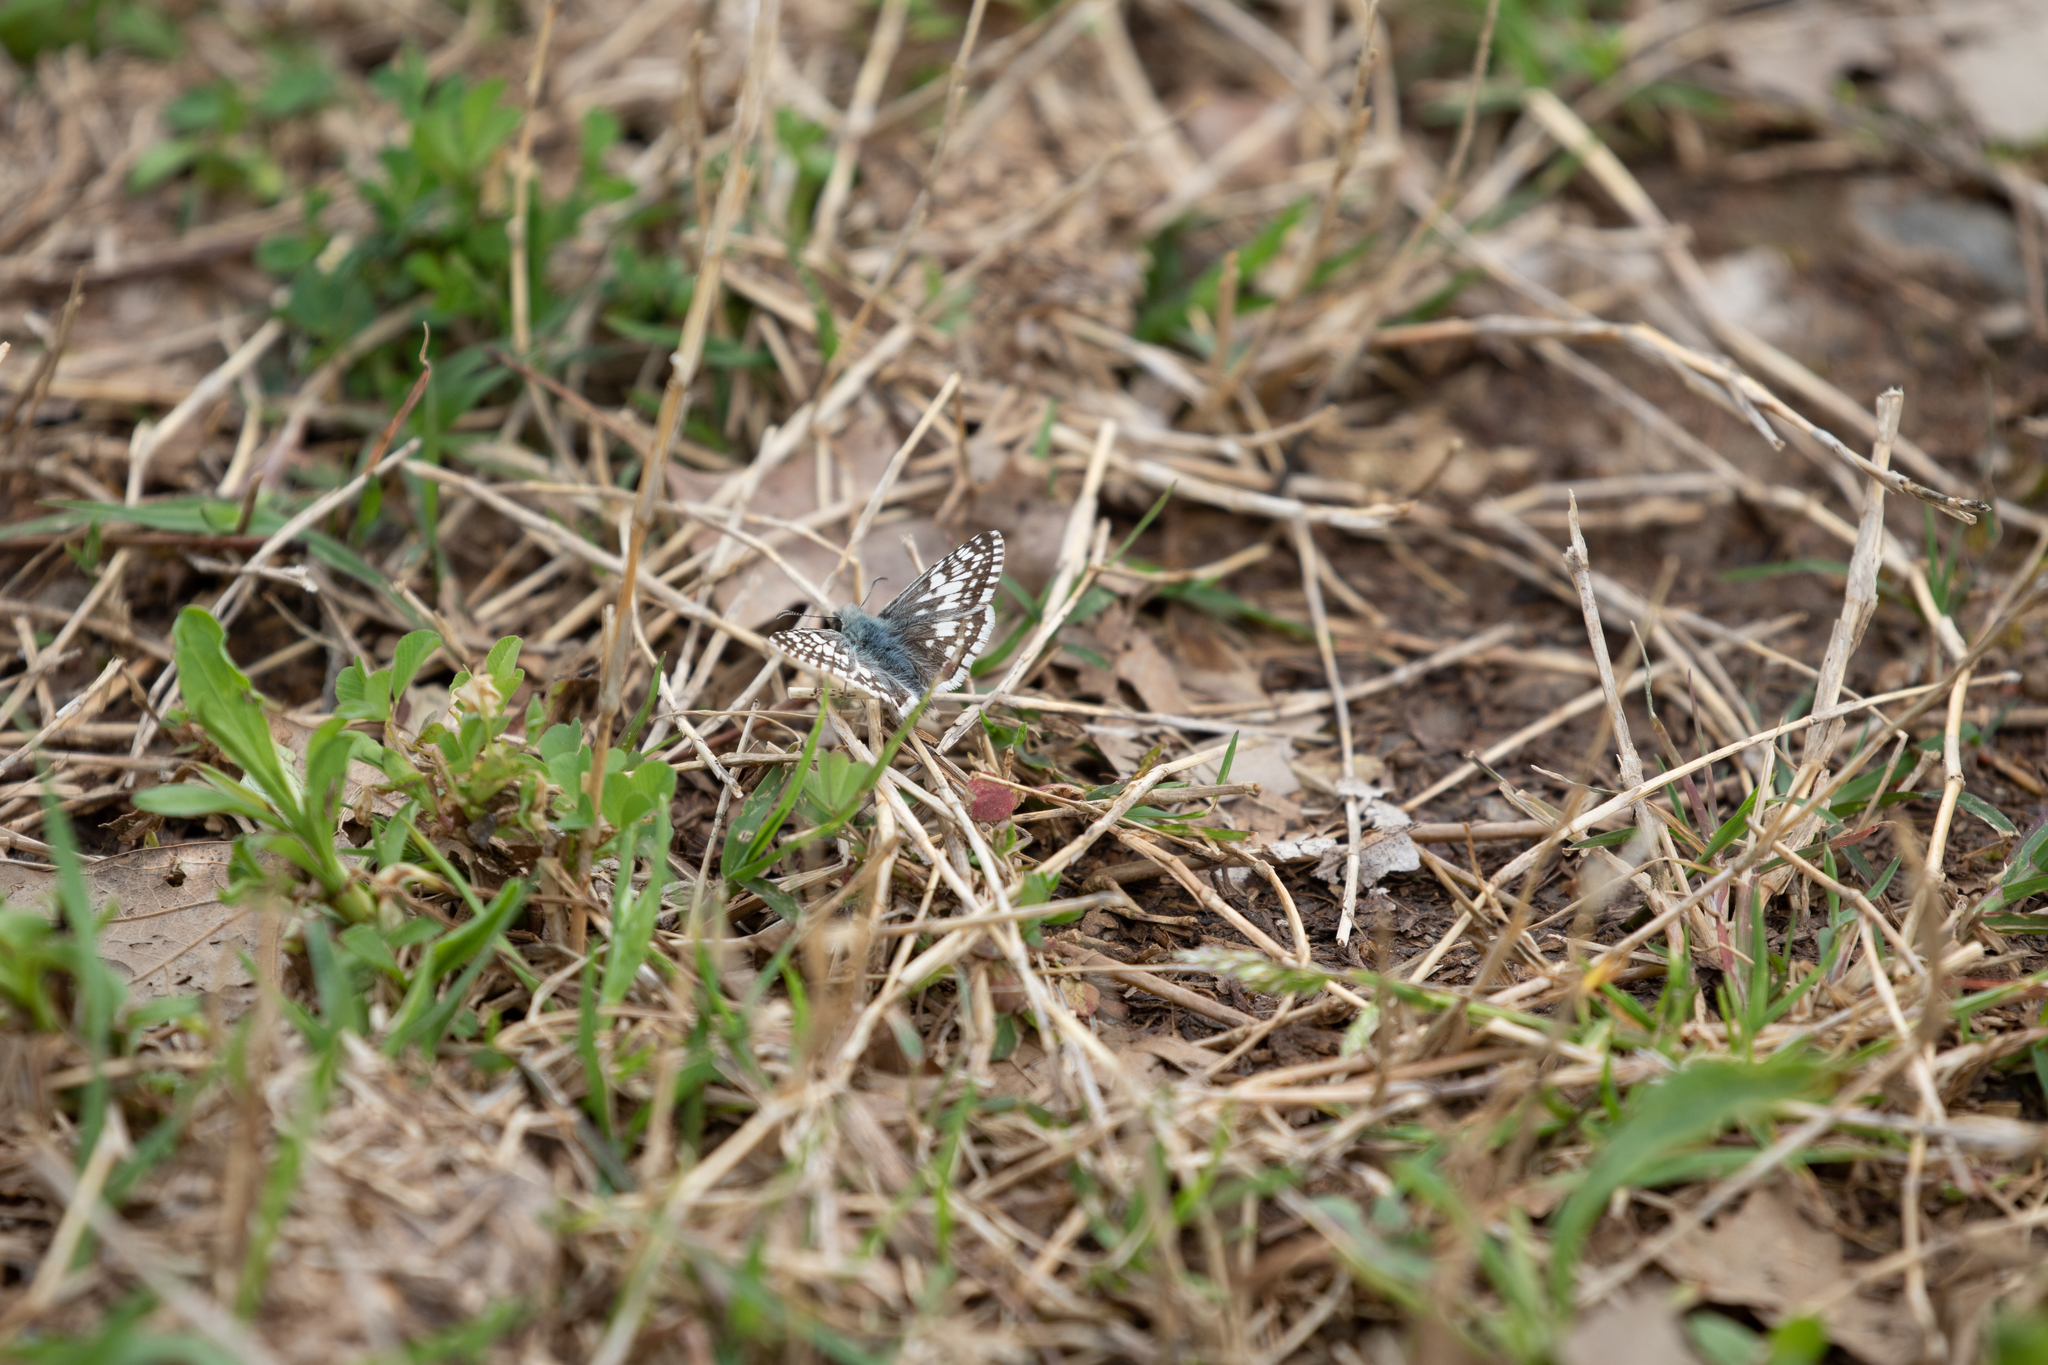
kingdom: Animalia
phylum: Arthropoda
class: Insecta
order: Lepidoptera
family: Hesperiidae
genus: Burnsius
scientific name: Burnsius communis
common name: Common checkered-skipper
